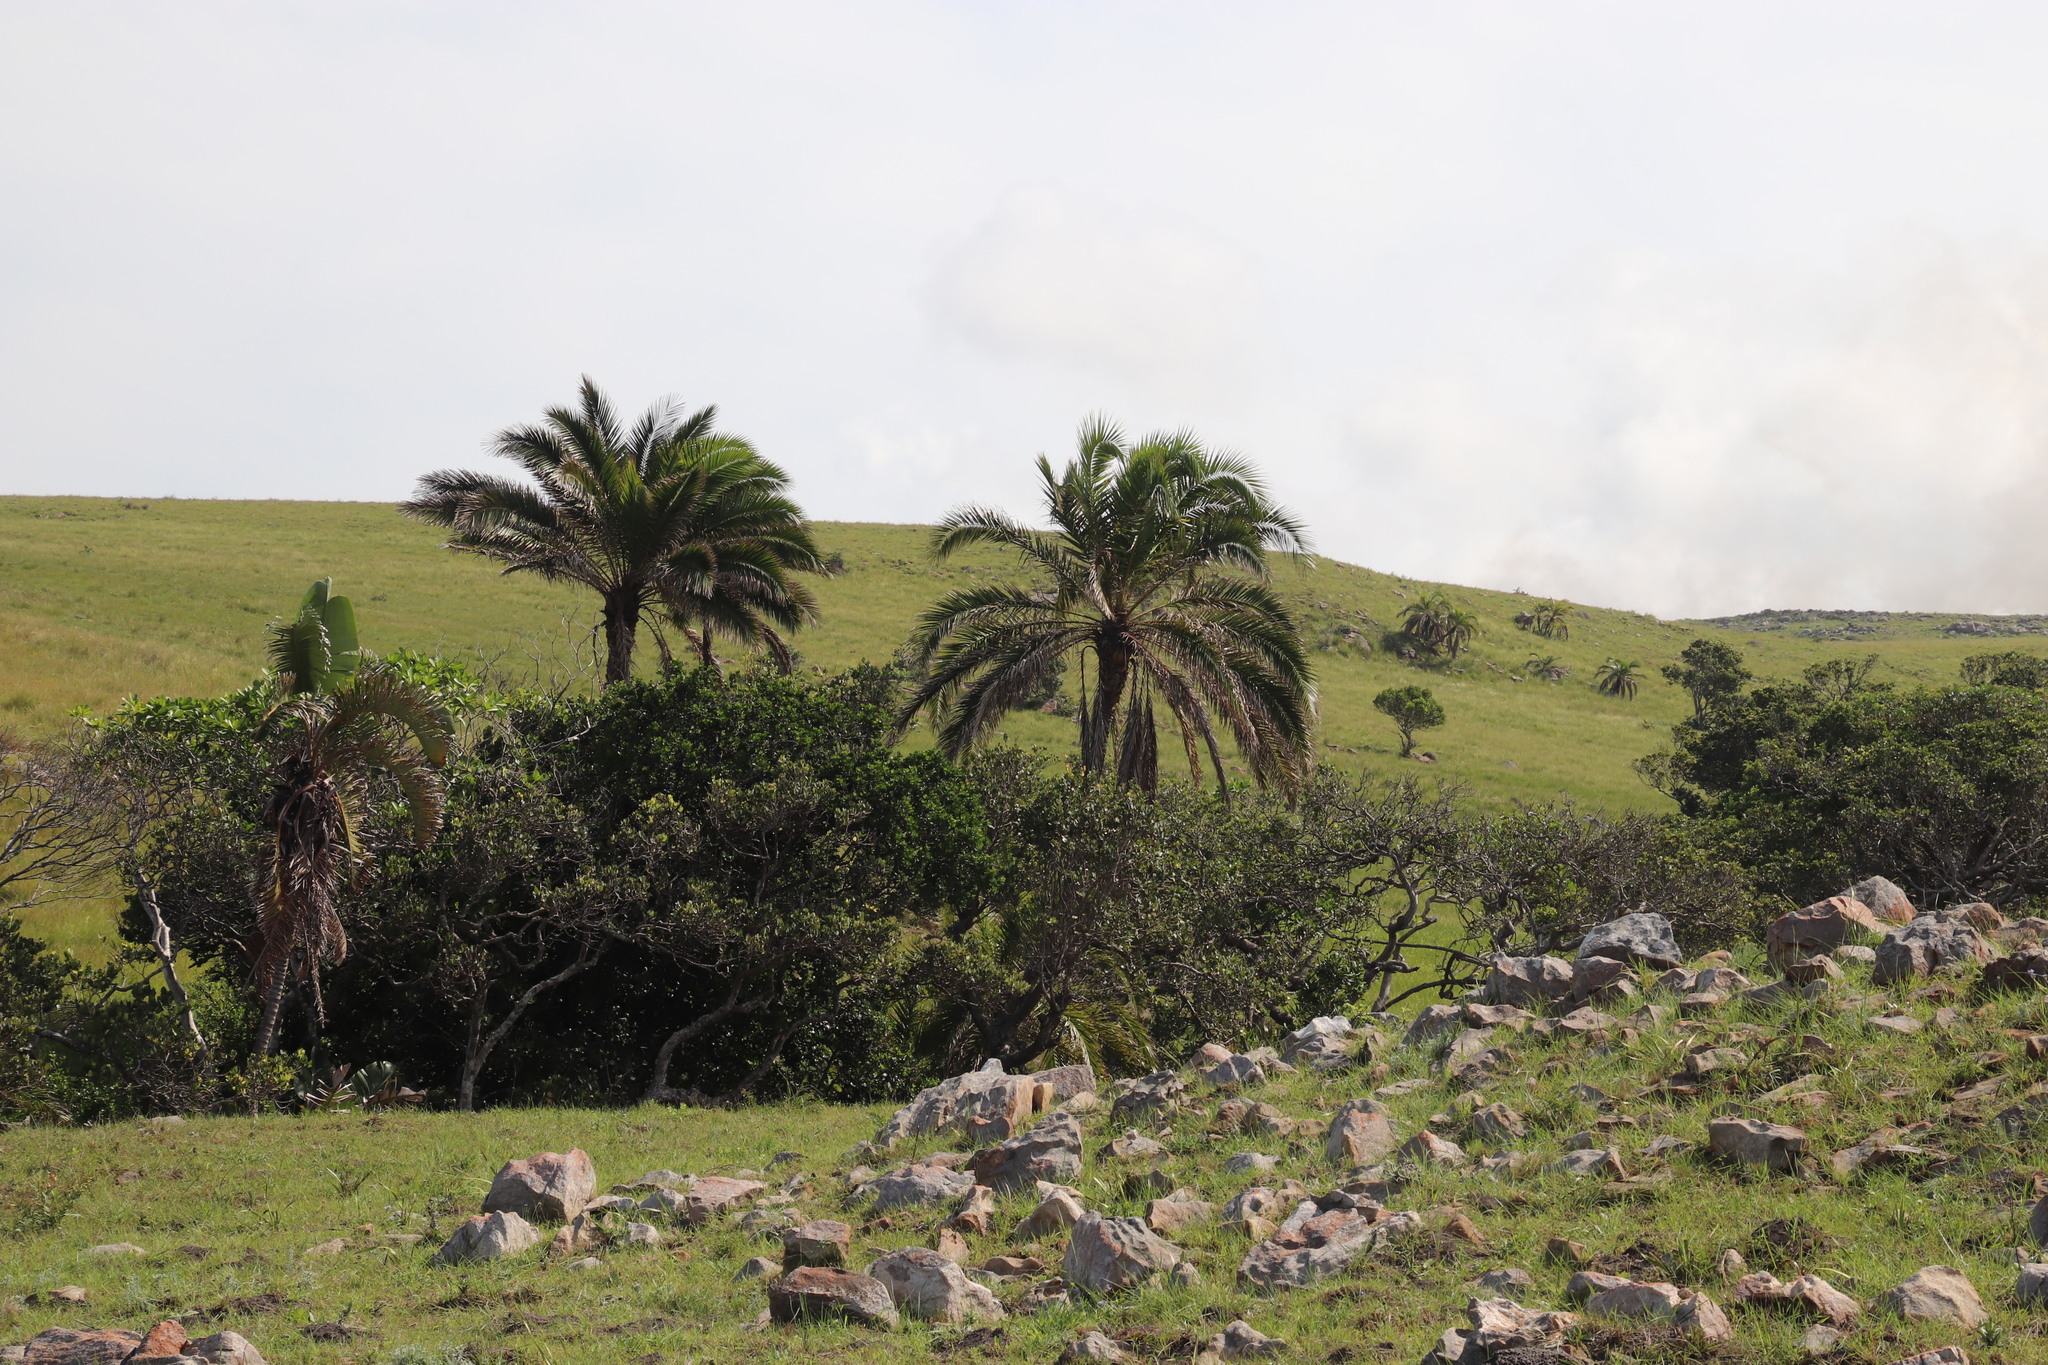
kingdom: Plantae
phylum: Tracheophyta
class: Liliopsida
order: Arecales
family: Arecaceae
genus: Phoenix
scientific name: Phoenix reclinata
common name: Senegal date palm
